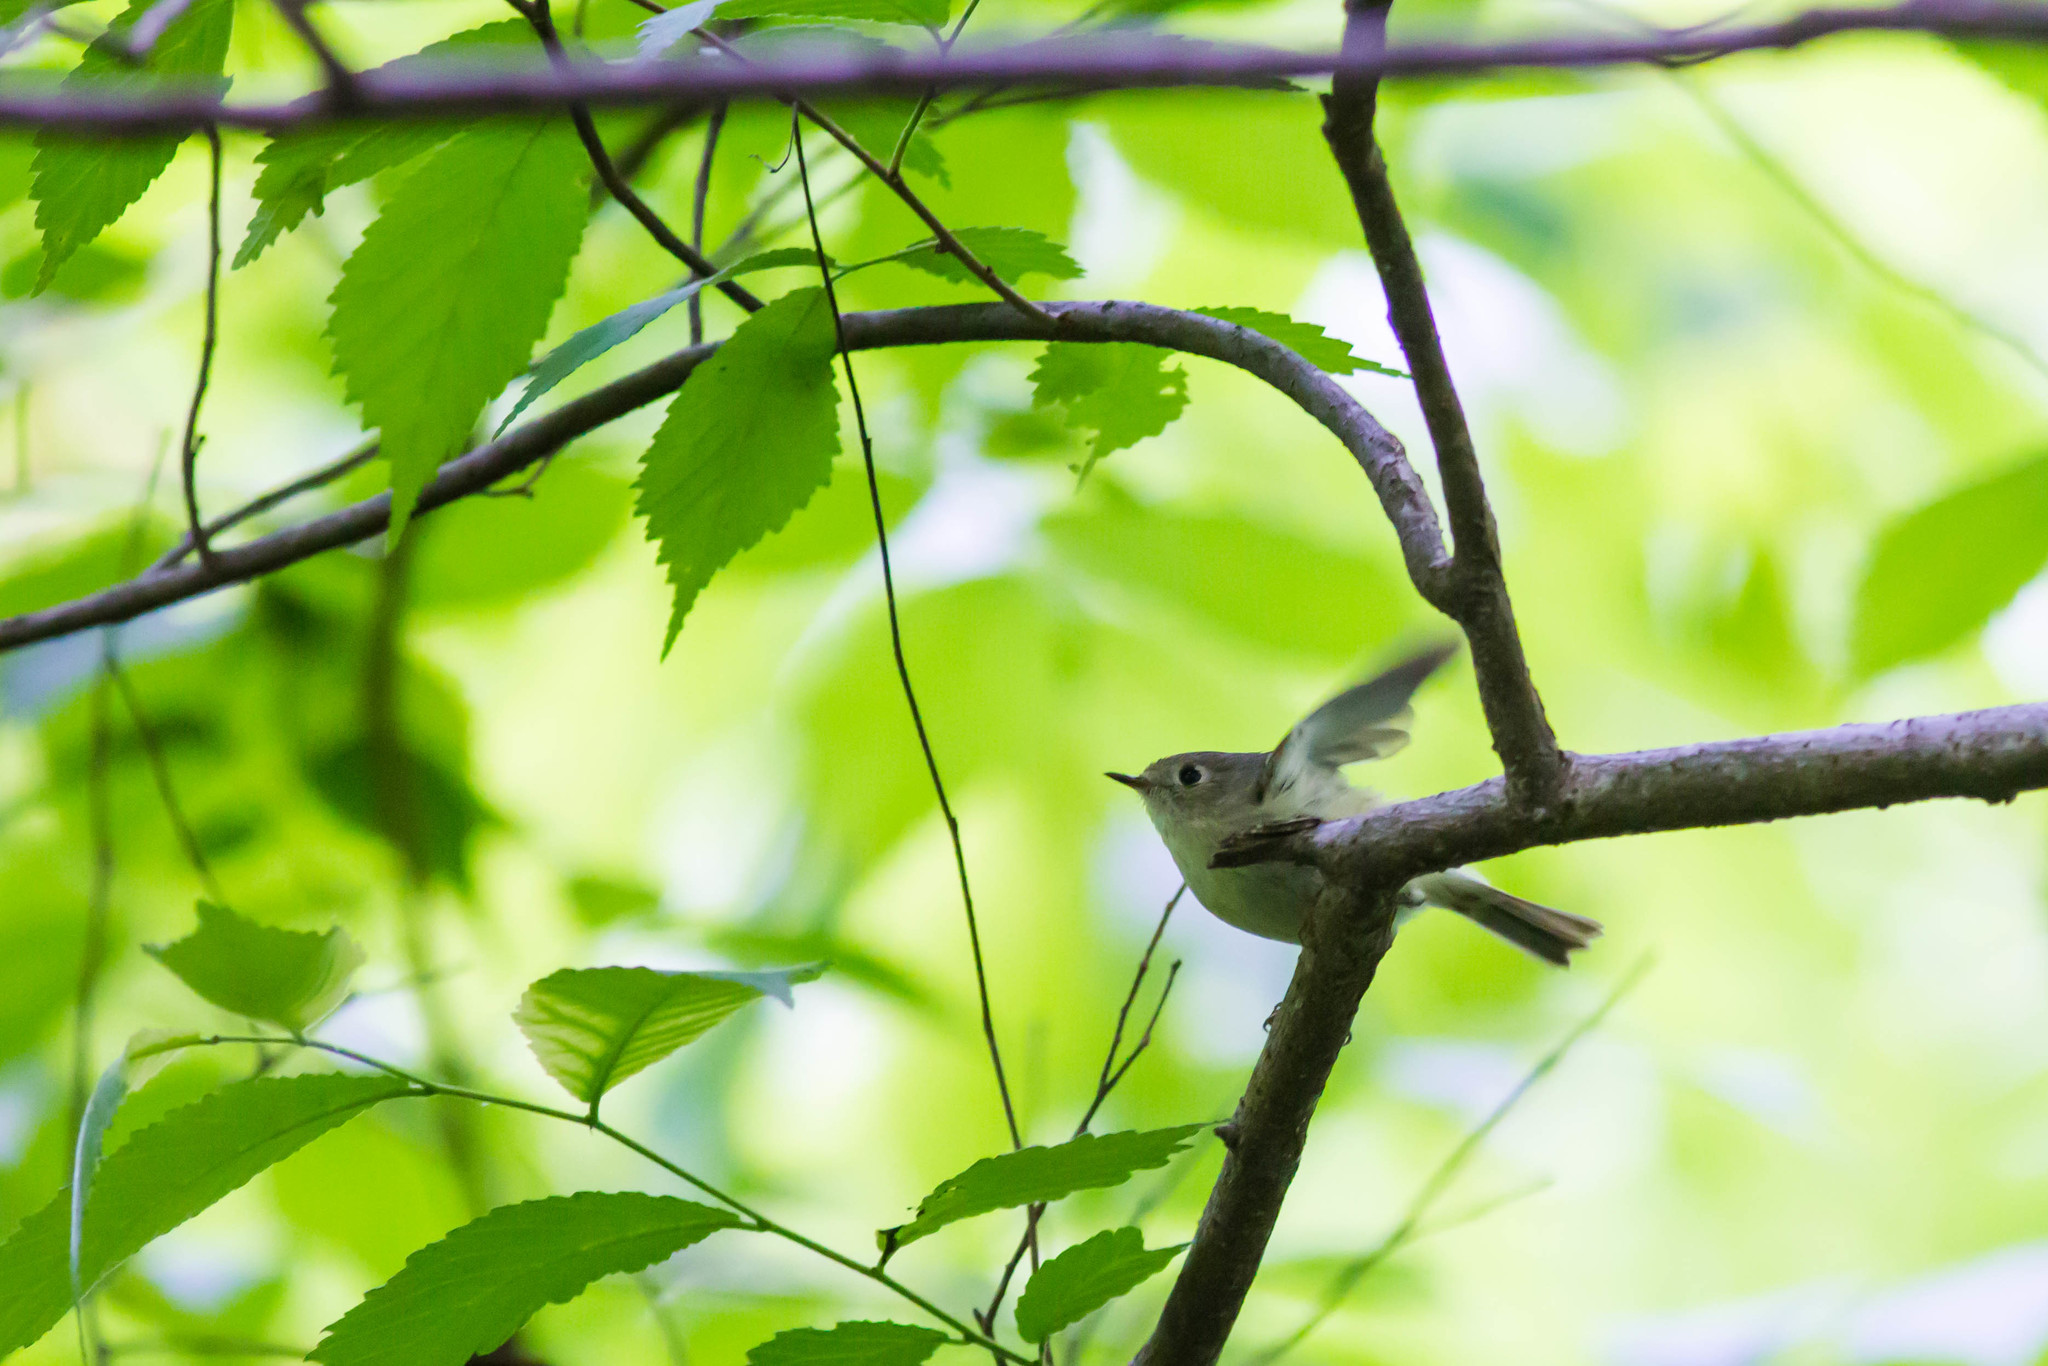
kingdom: Animalia
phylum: Chordata
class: Aves
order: Passeriformes
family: Regulidae
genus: Regulus
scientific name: Regulus calendula
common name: Ruby-crowned kinglet
